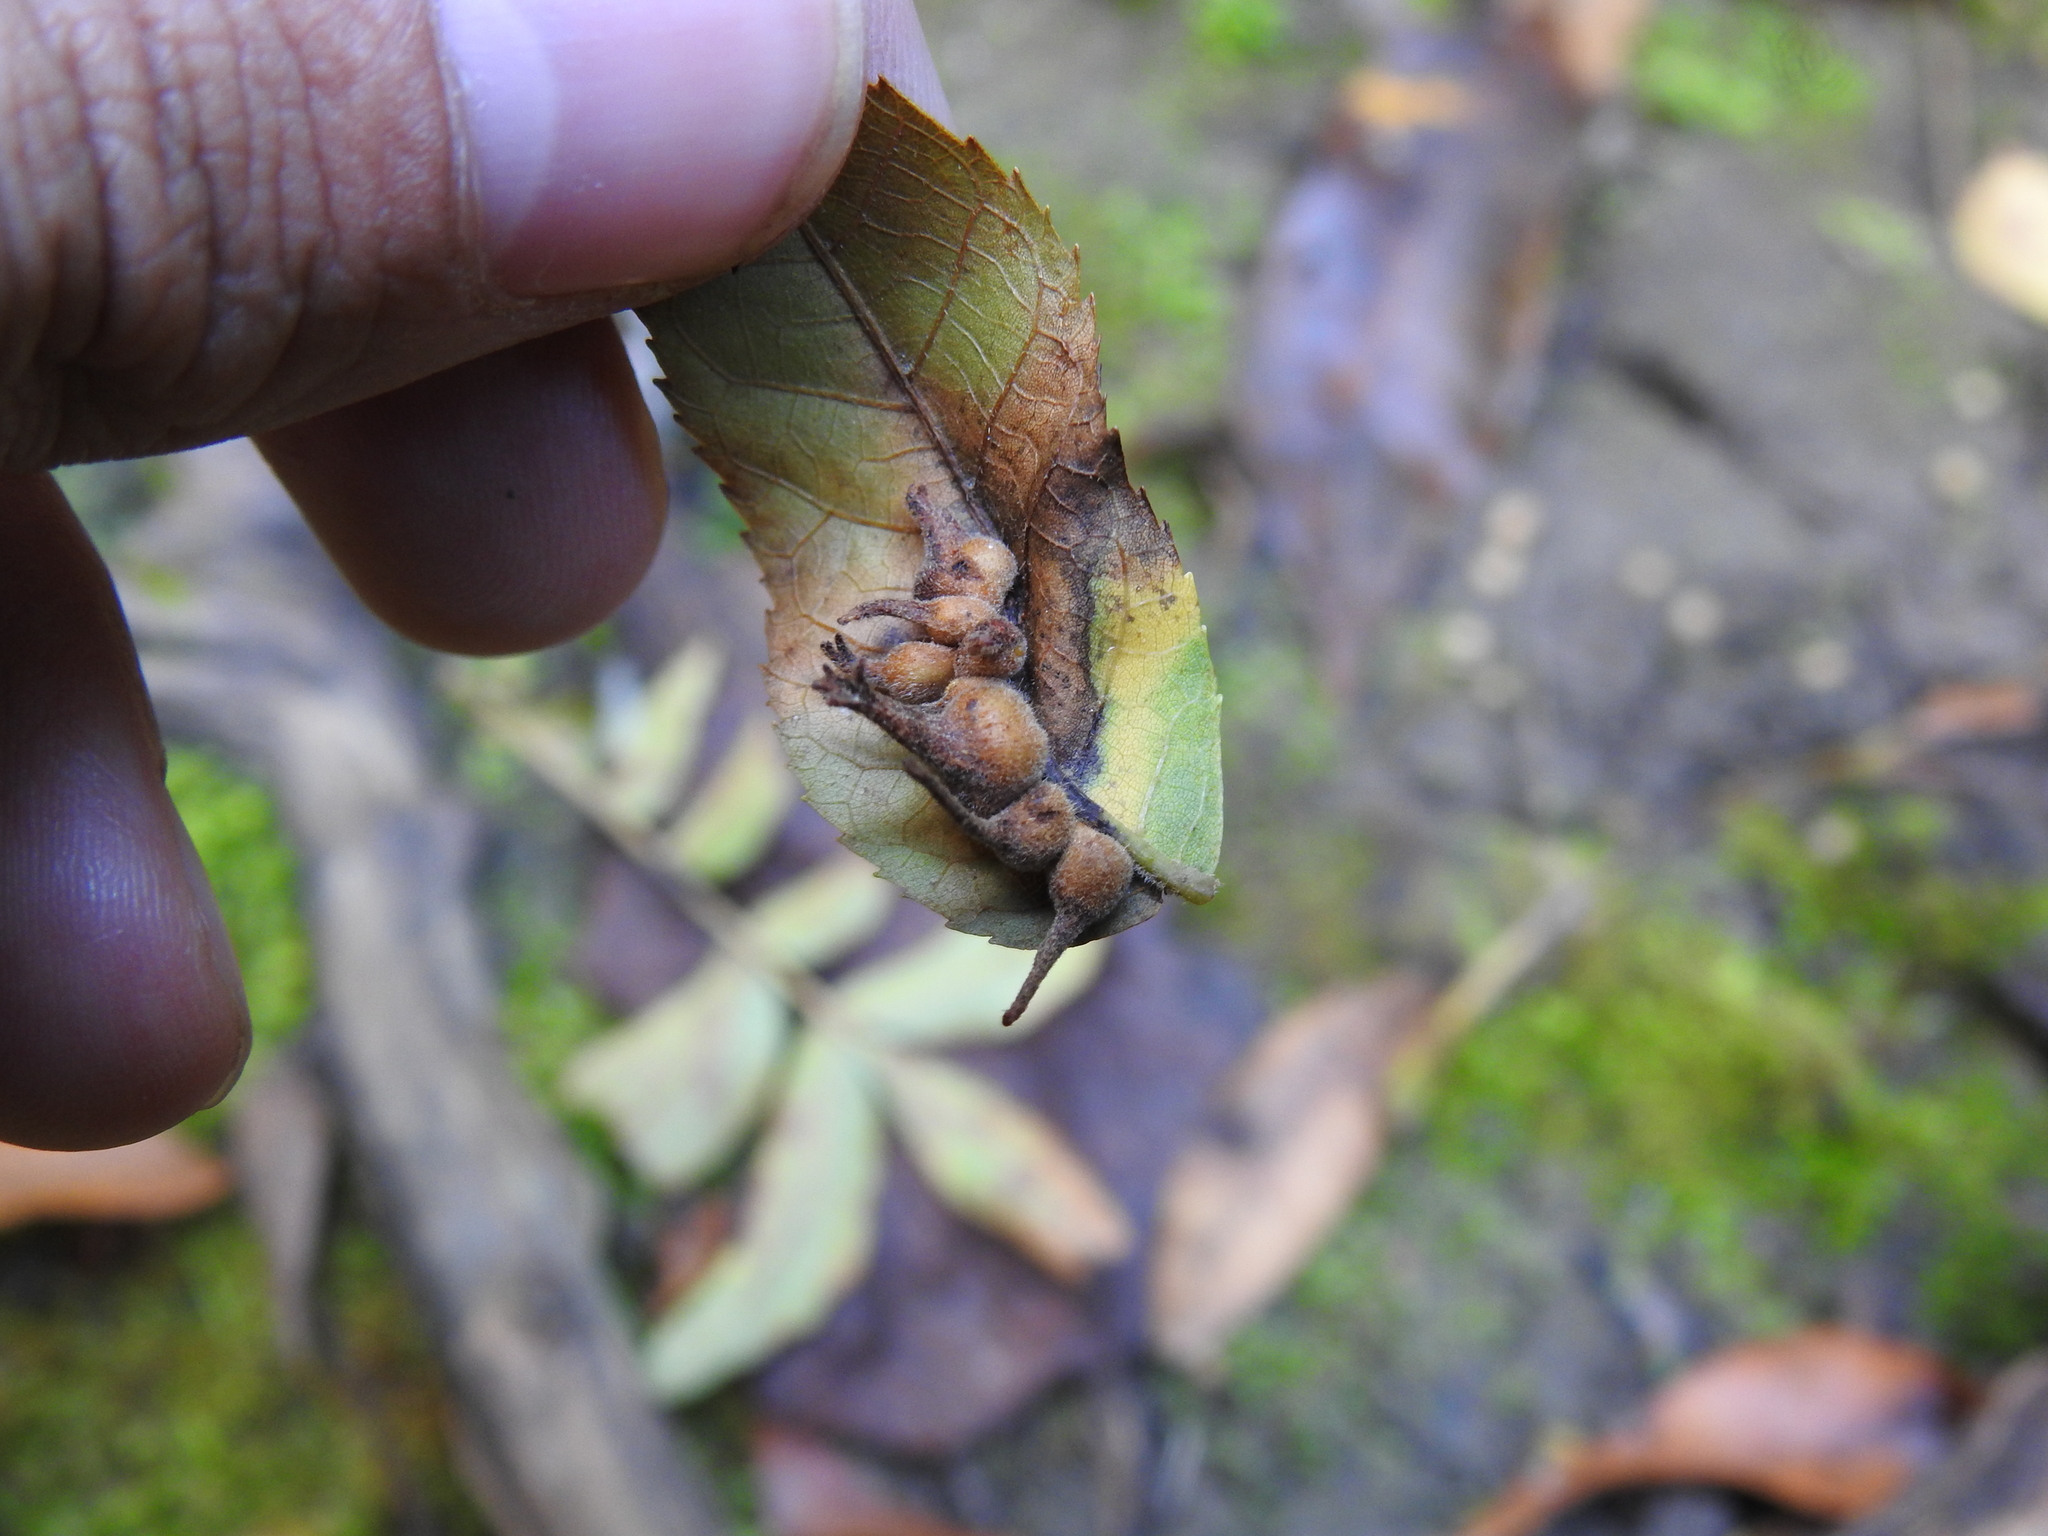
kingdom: Animalia
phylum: Arthropoda
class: Insecta
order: Diptera
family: Cecidomyiidae
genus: Caryomyia
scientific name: Caryomyia ansericollum
